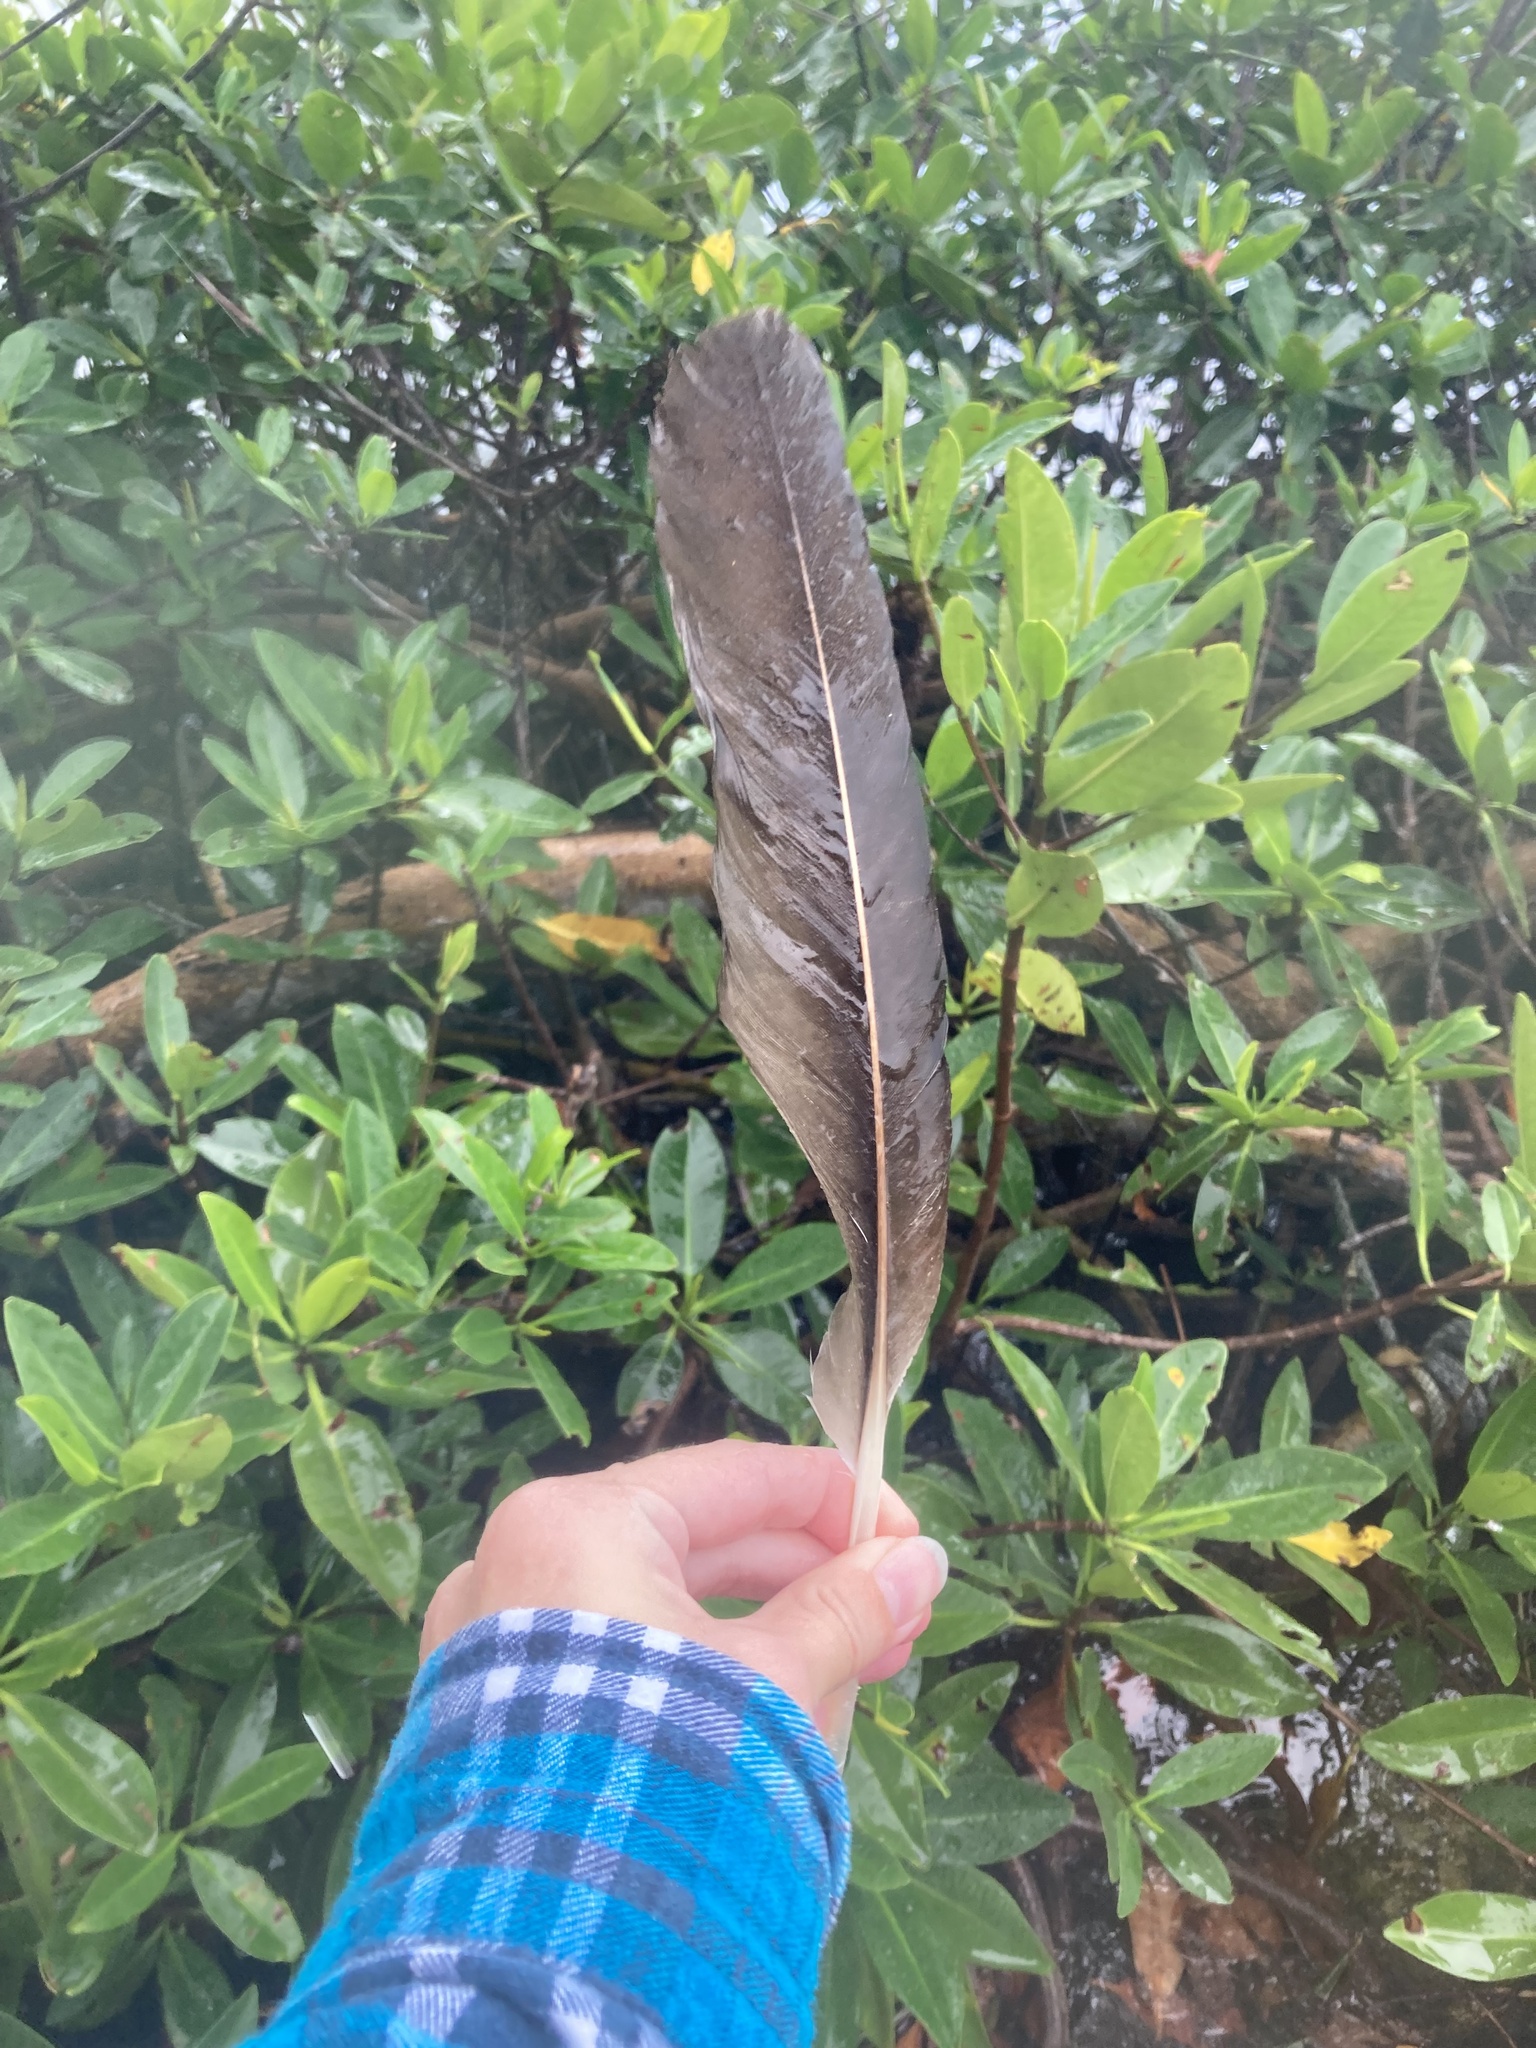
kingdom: Animalia
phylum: Chordata
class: Aves
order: Accipitriformes
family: Cathartidae
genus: Cathartes
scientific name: Cathartes aura
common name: Turkey vulture
